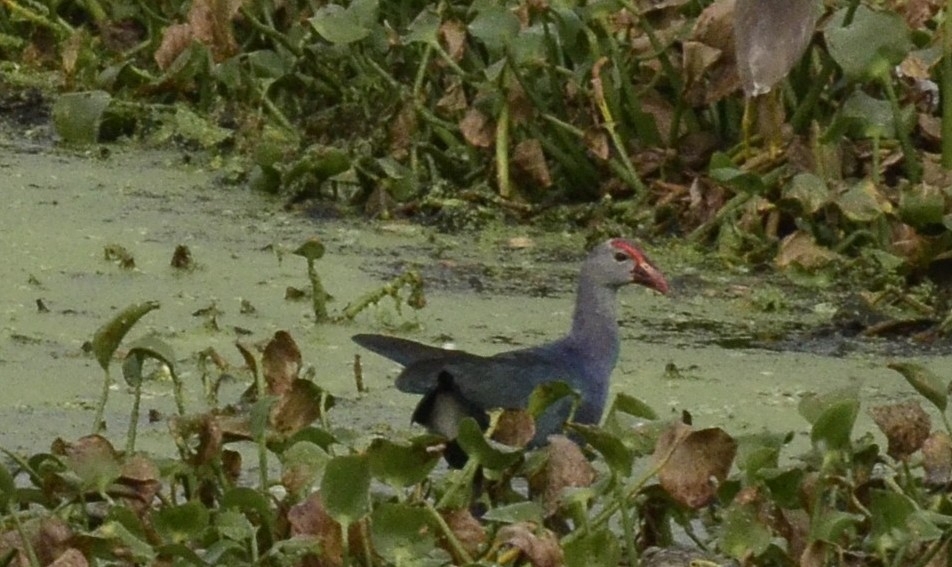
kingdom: Animalia
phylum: Chordata
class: Aves
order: Gruiformes
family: Rallidae
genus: Porphyrio
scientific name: Porphyrio porphyrio
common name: Purple swamphen
